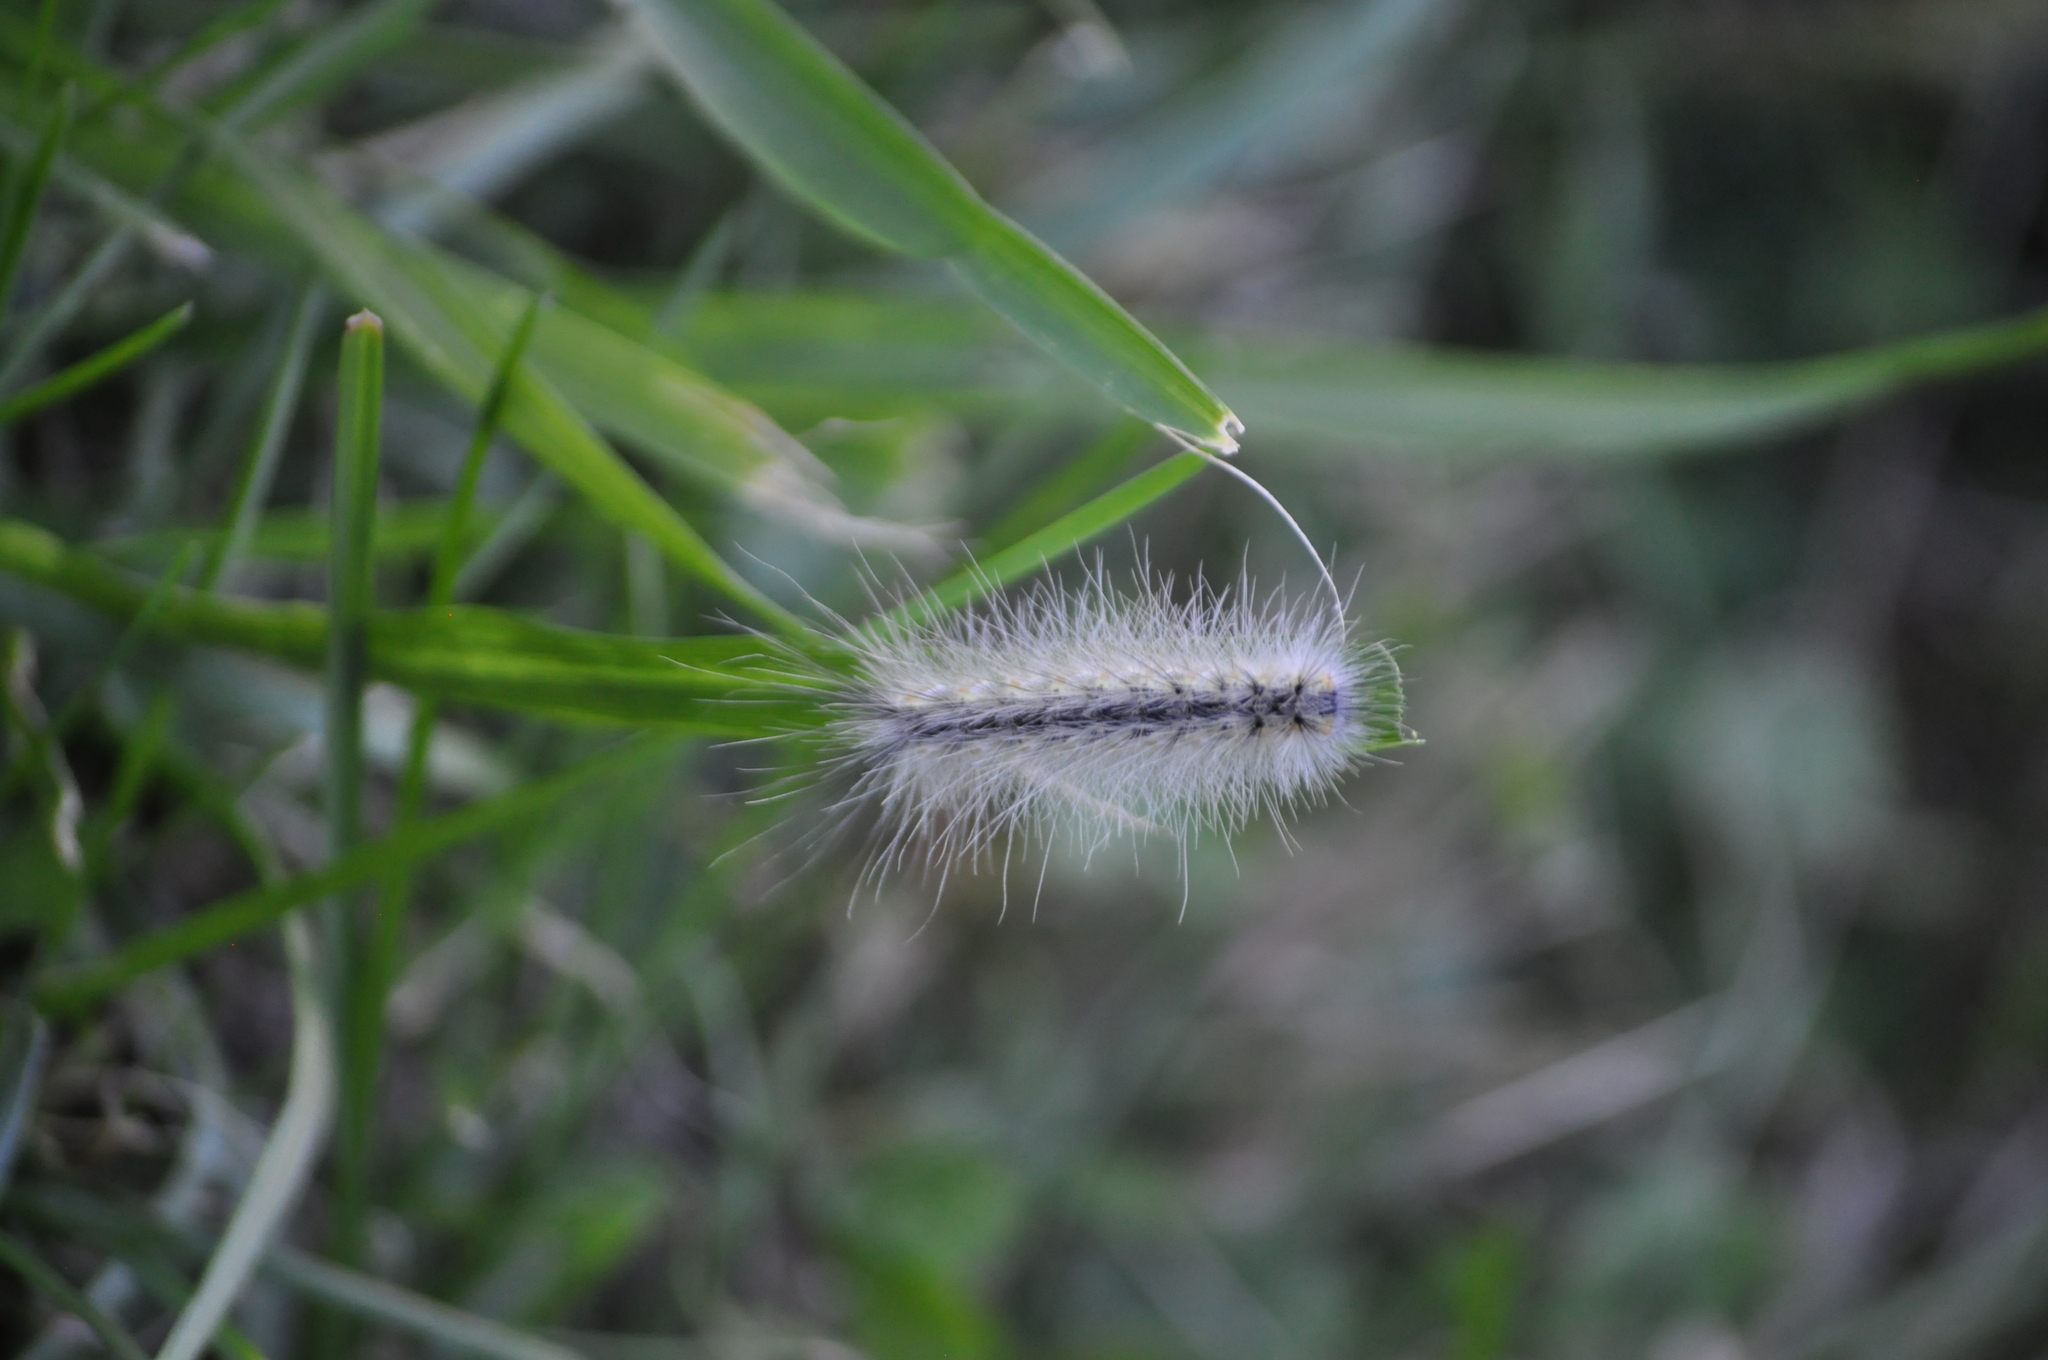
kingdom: Animalia
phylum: Arthropoda
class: Insecta
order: Lepidoptera
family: Erebidae
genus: Hyphantria
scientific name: Hyphantria cunea
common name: American white moth
